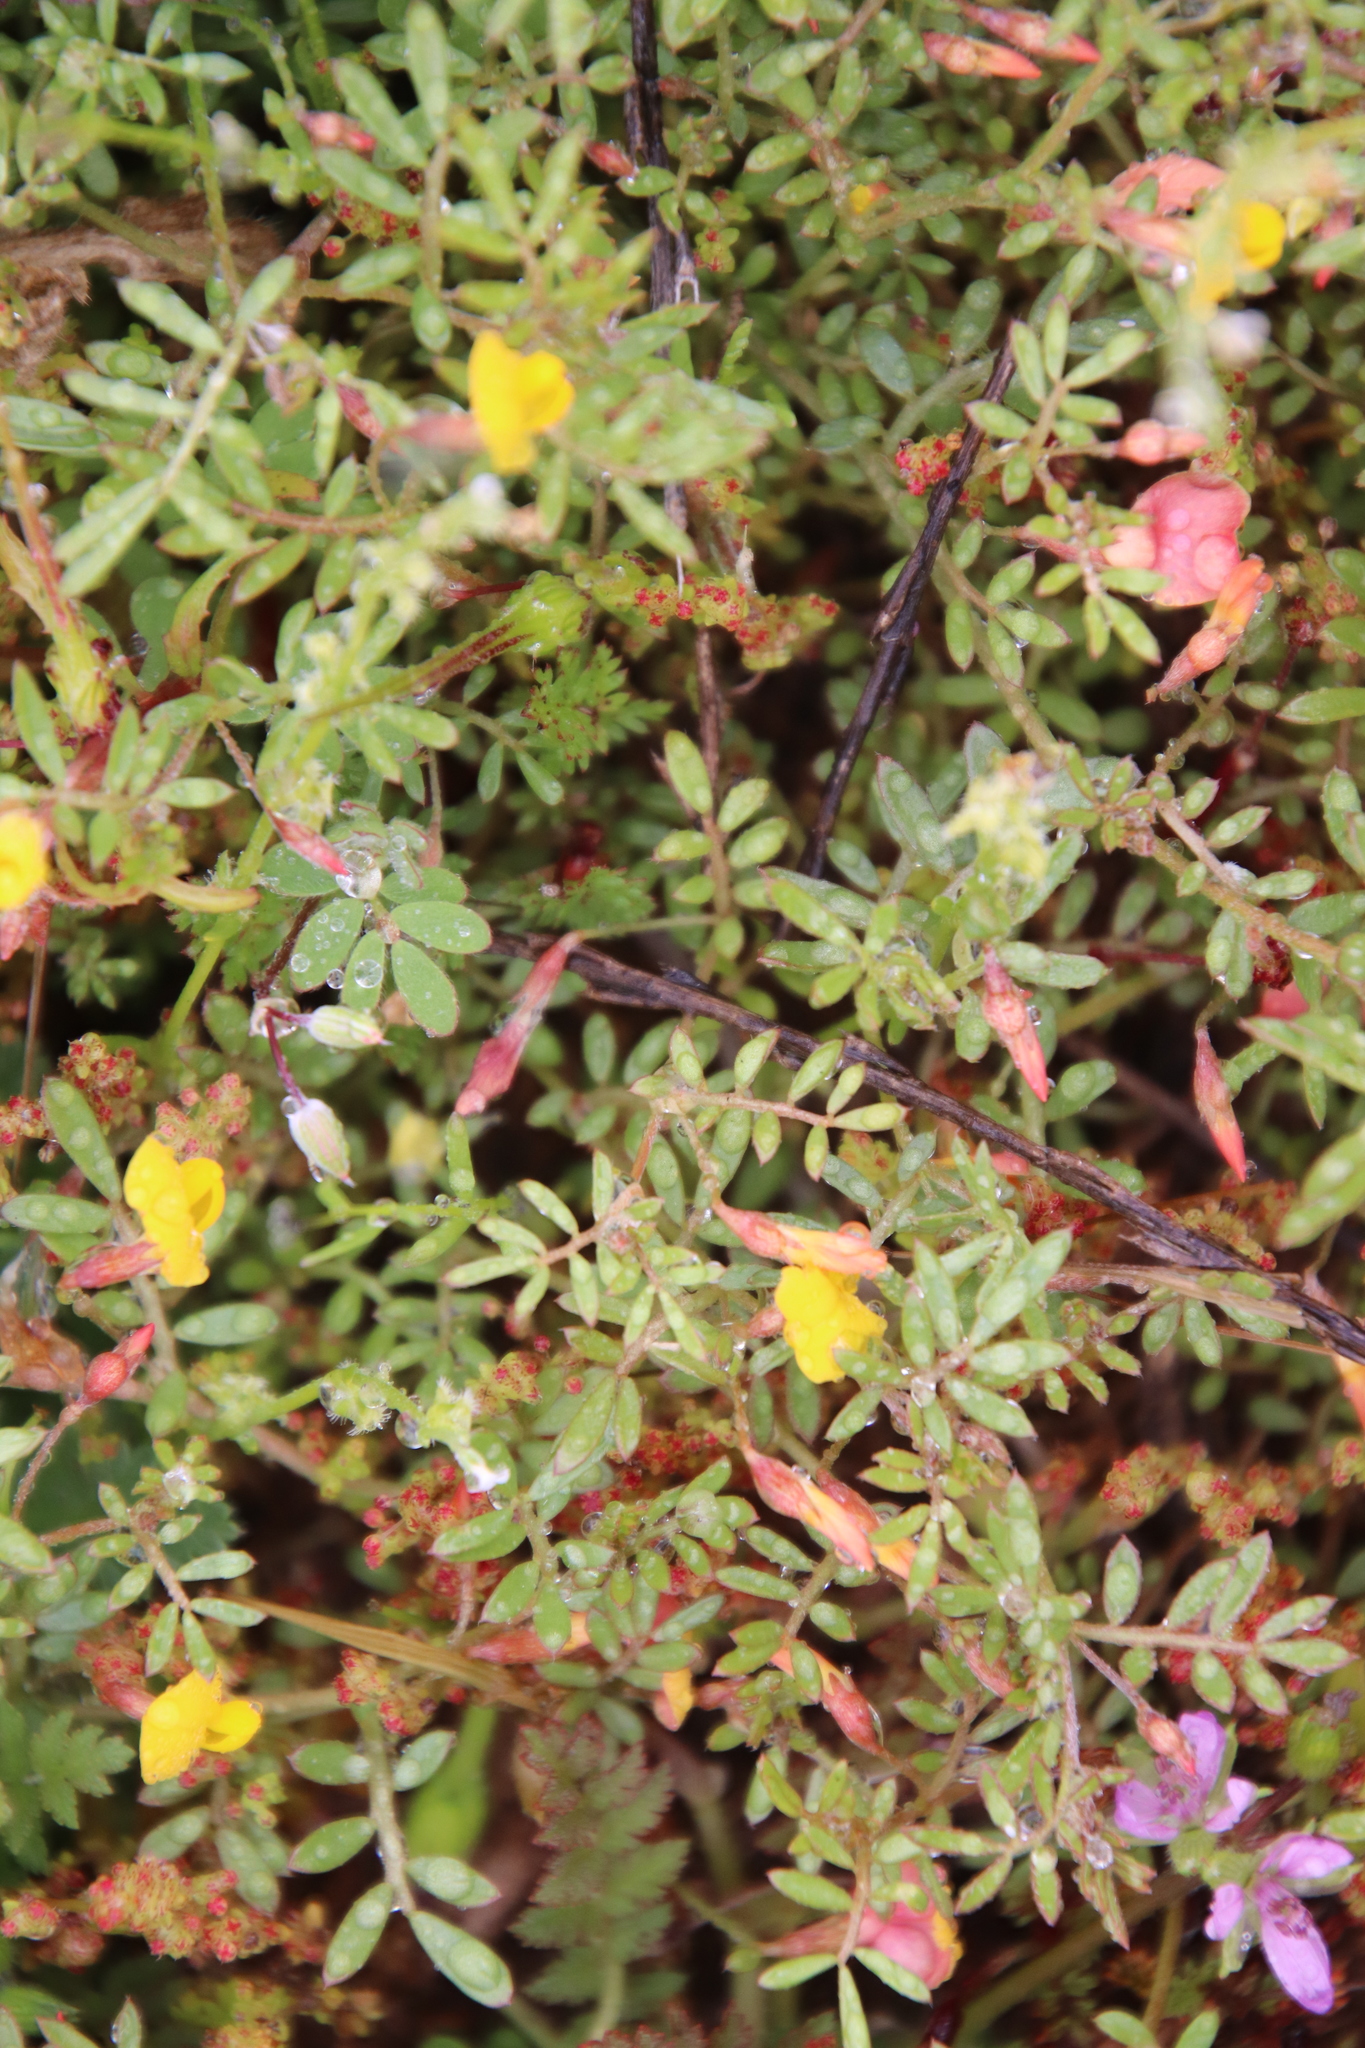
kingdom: Plantae
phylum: Tracheophyta
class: Magnoliopsida
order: Fabales
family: Fabaceae
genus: Acmispon
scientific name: Acmispon strigosus
